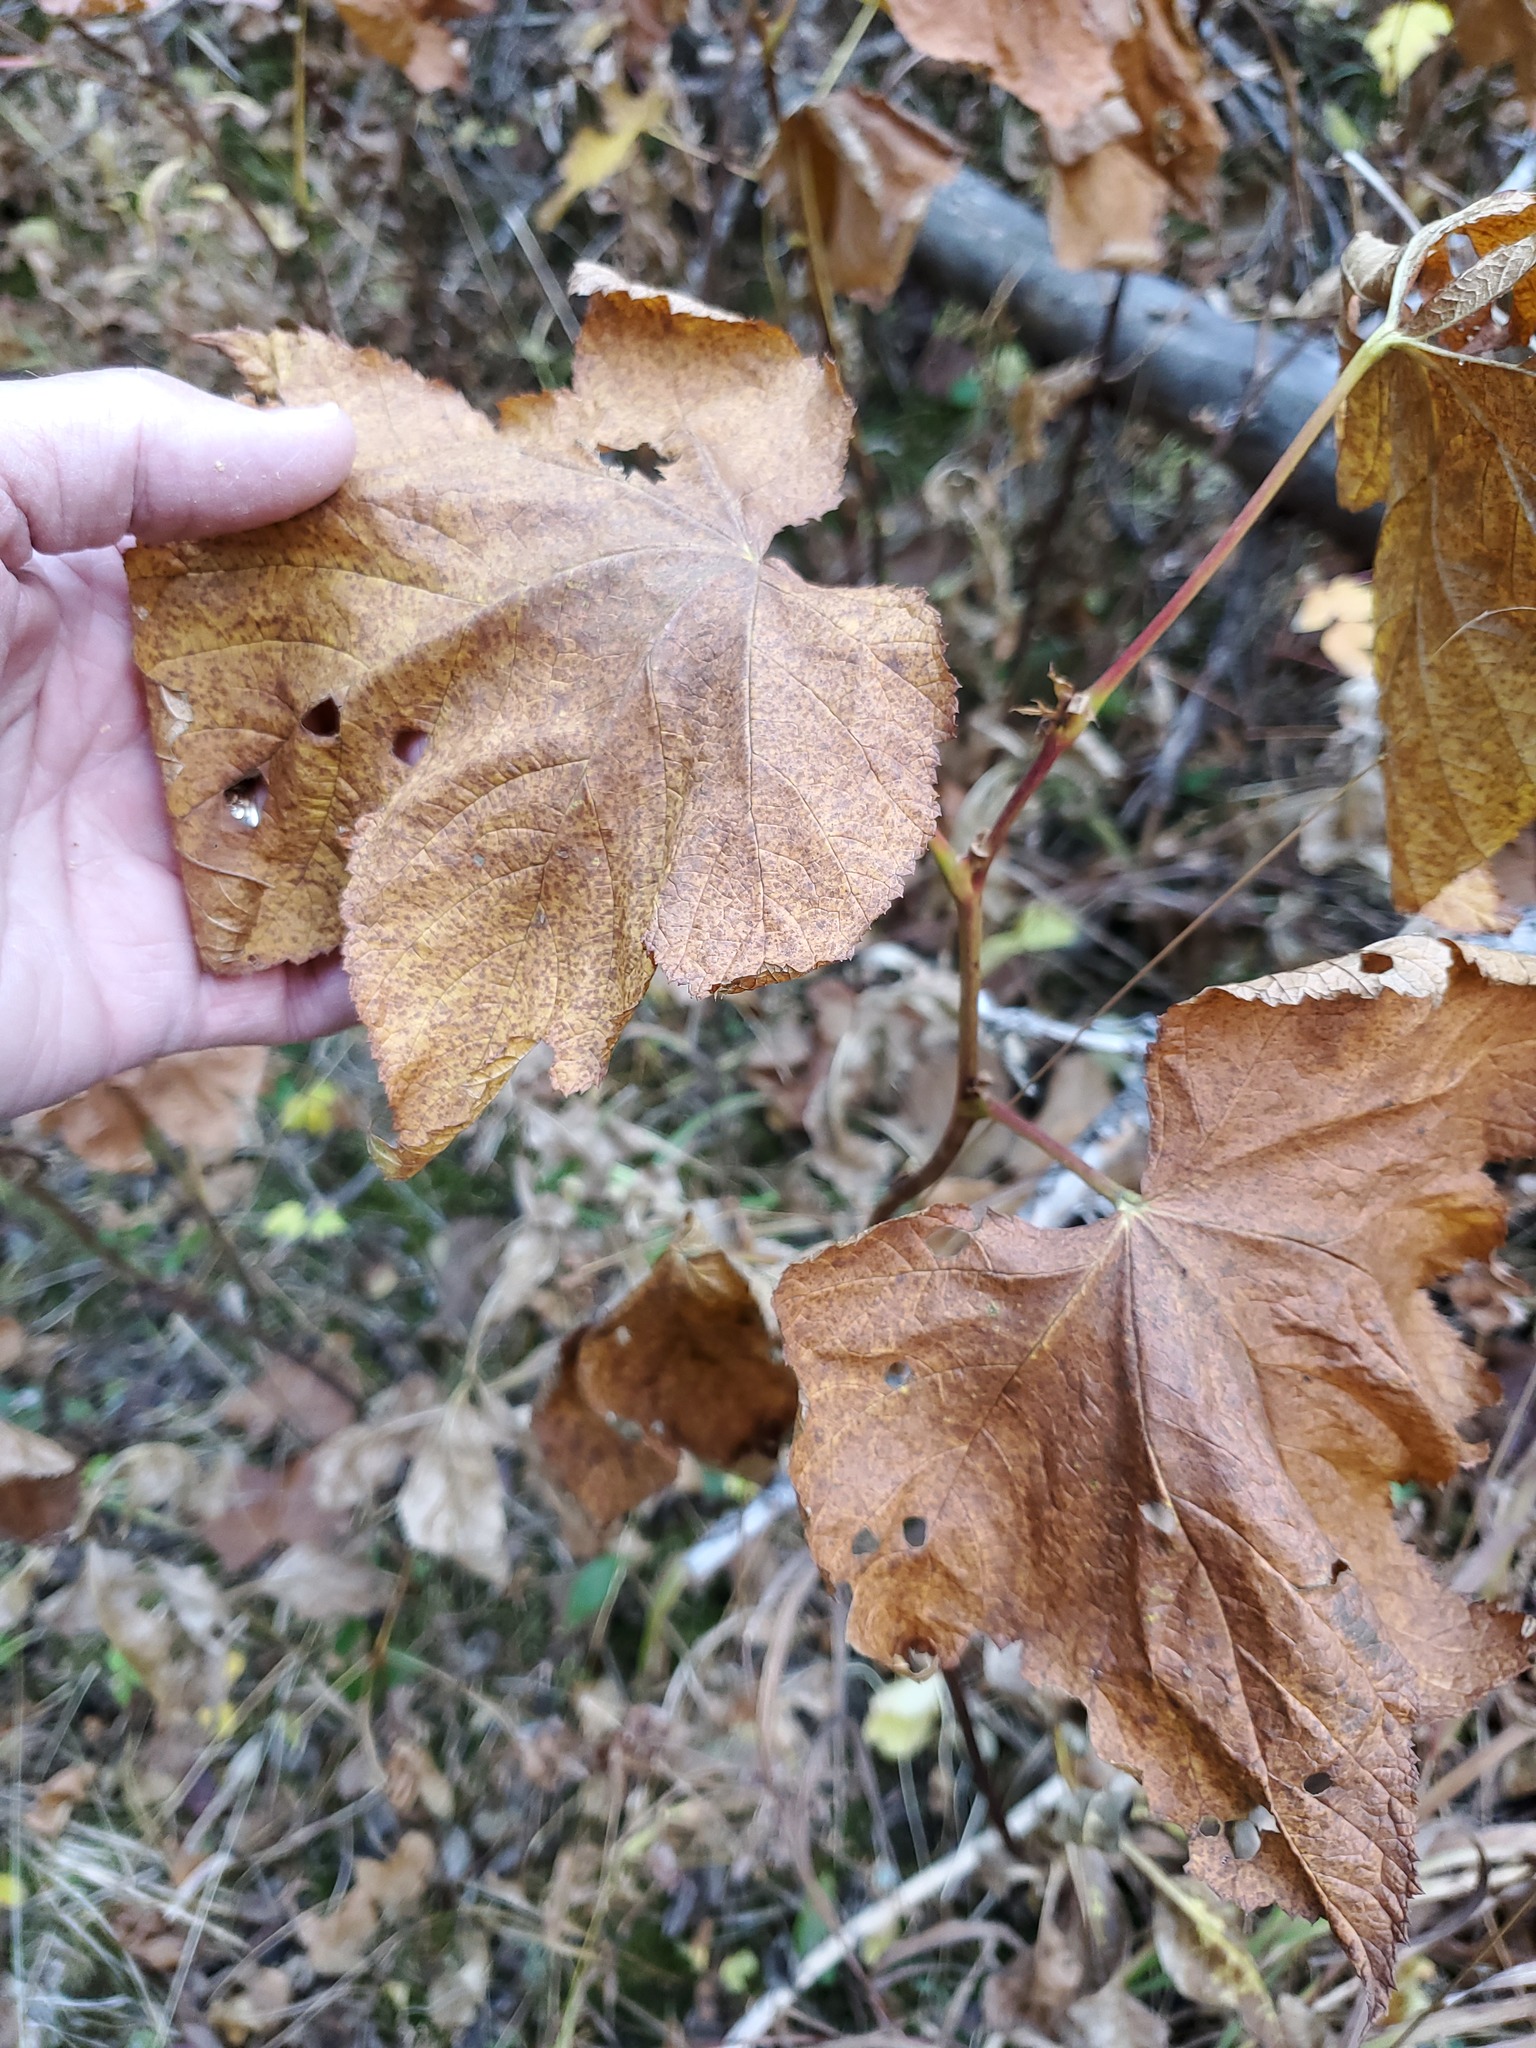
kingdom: Plantae
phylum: Tracheophyta
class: Magnoliopsida
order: Rosales
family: Rosaceae
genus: Rubus
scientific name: Rubus parviflorus
